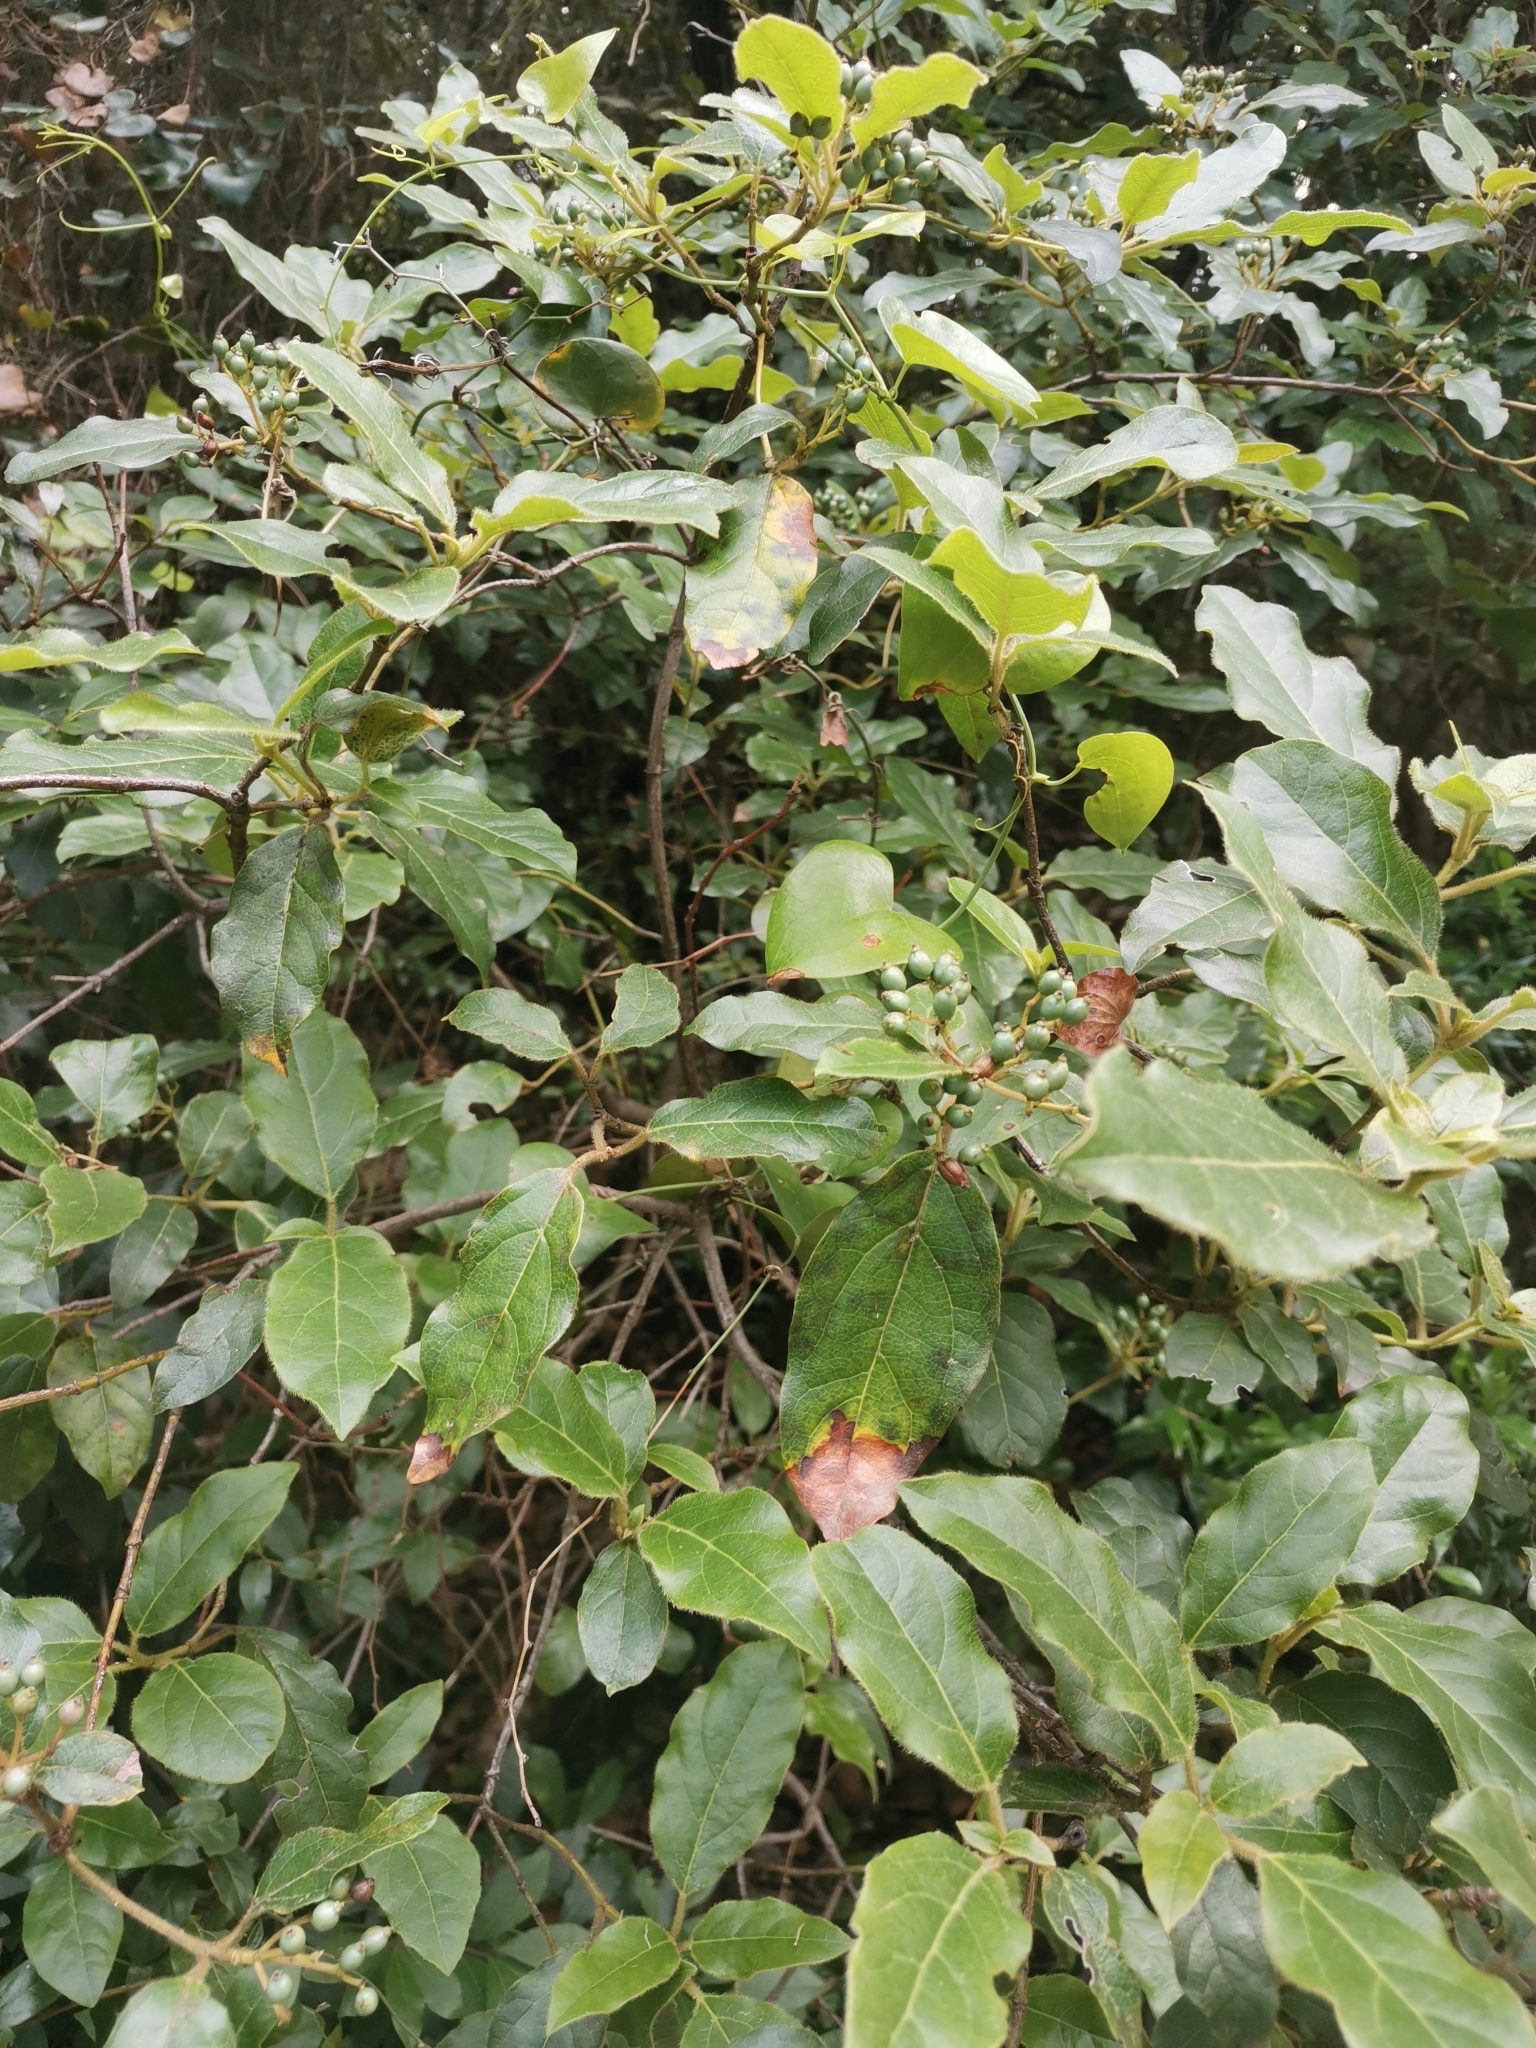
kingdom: Plantae
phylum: Tracheophyta
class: Magnoliopsida
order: Dipsacales
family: Viburnaceae
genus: Viburnum
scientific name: Viburnum tinus
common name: Laurustinus
